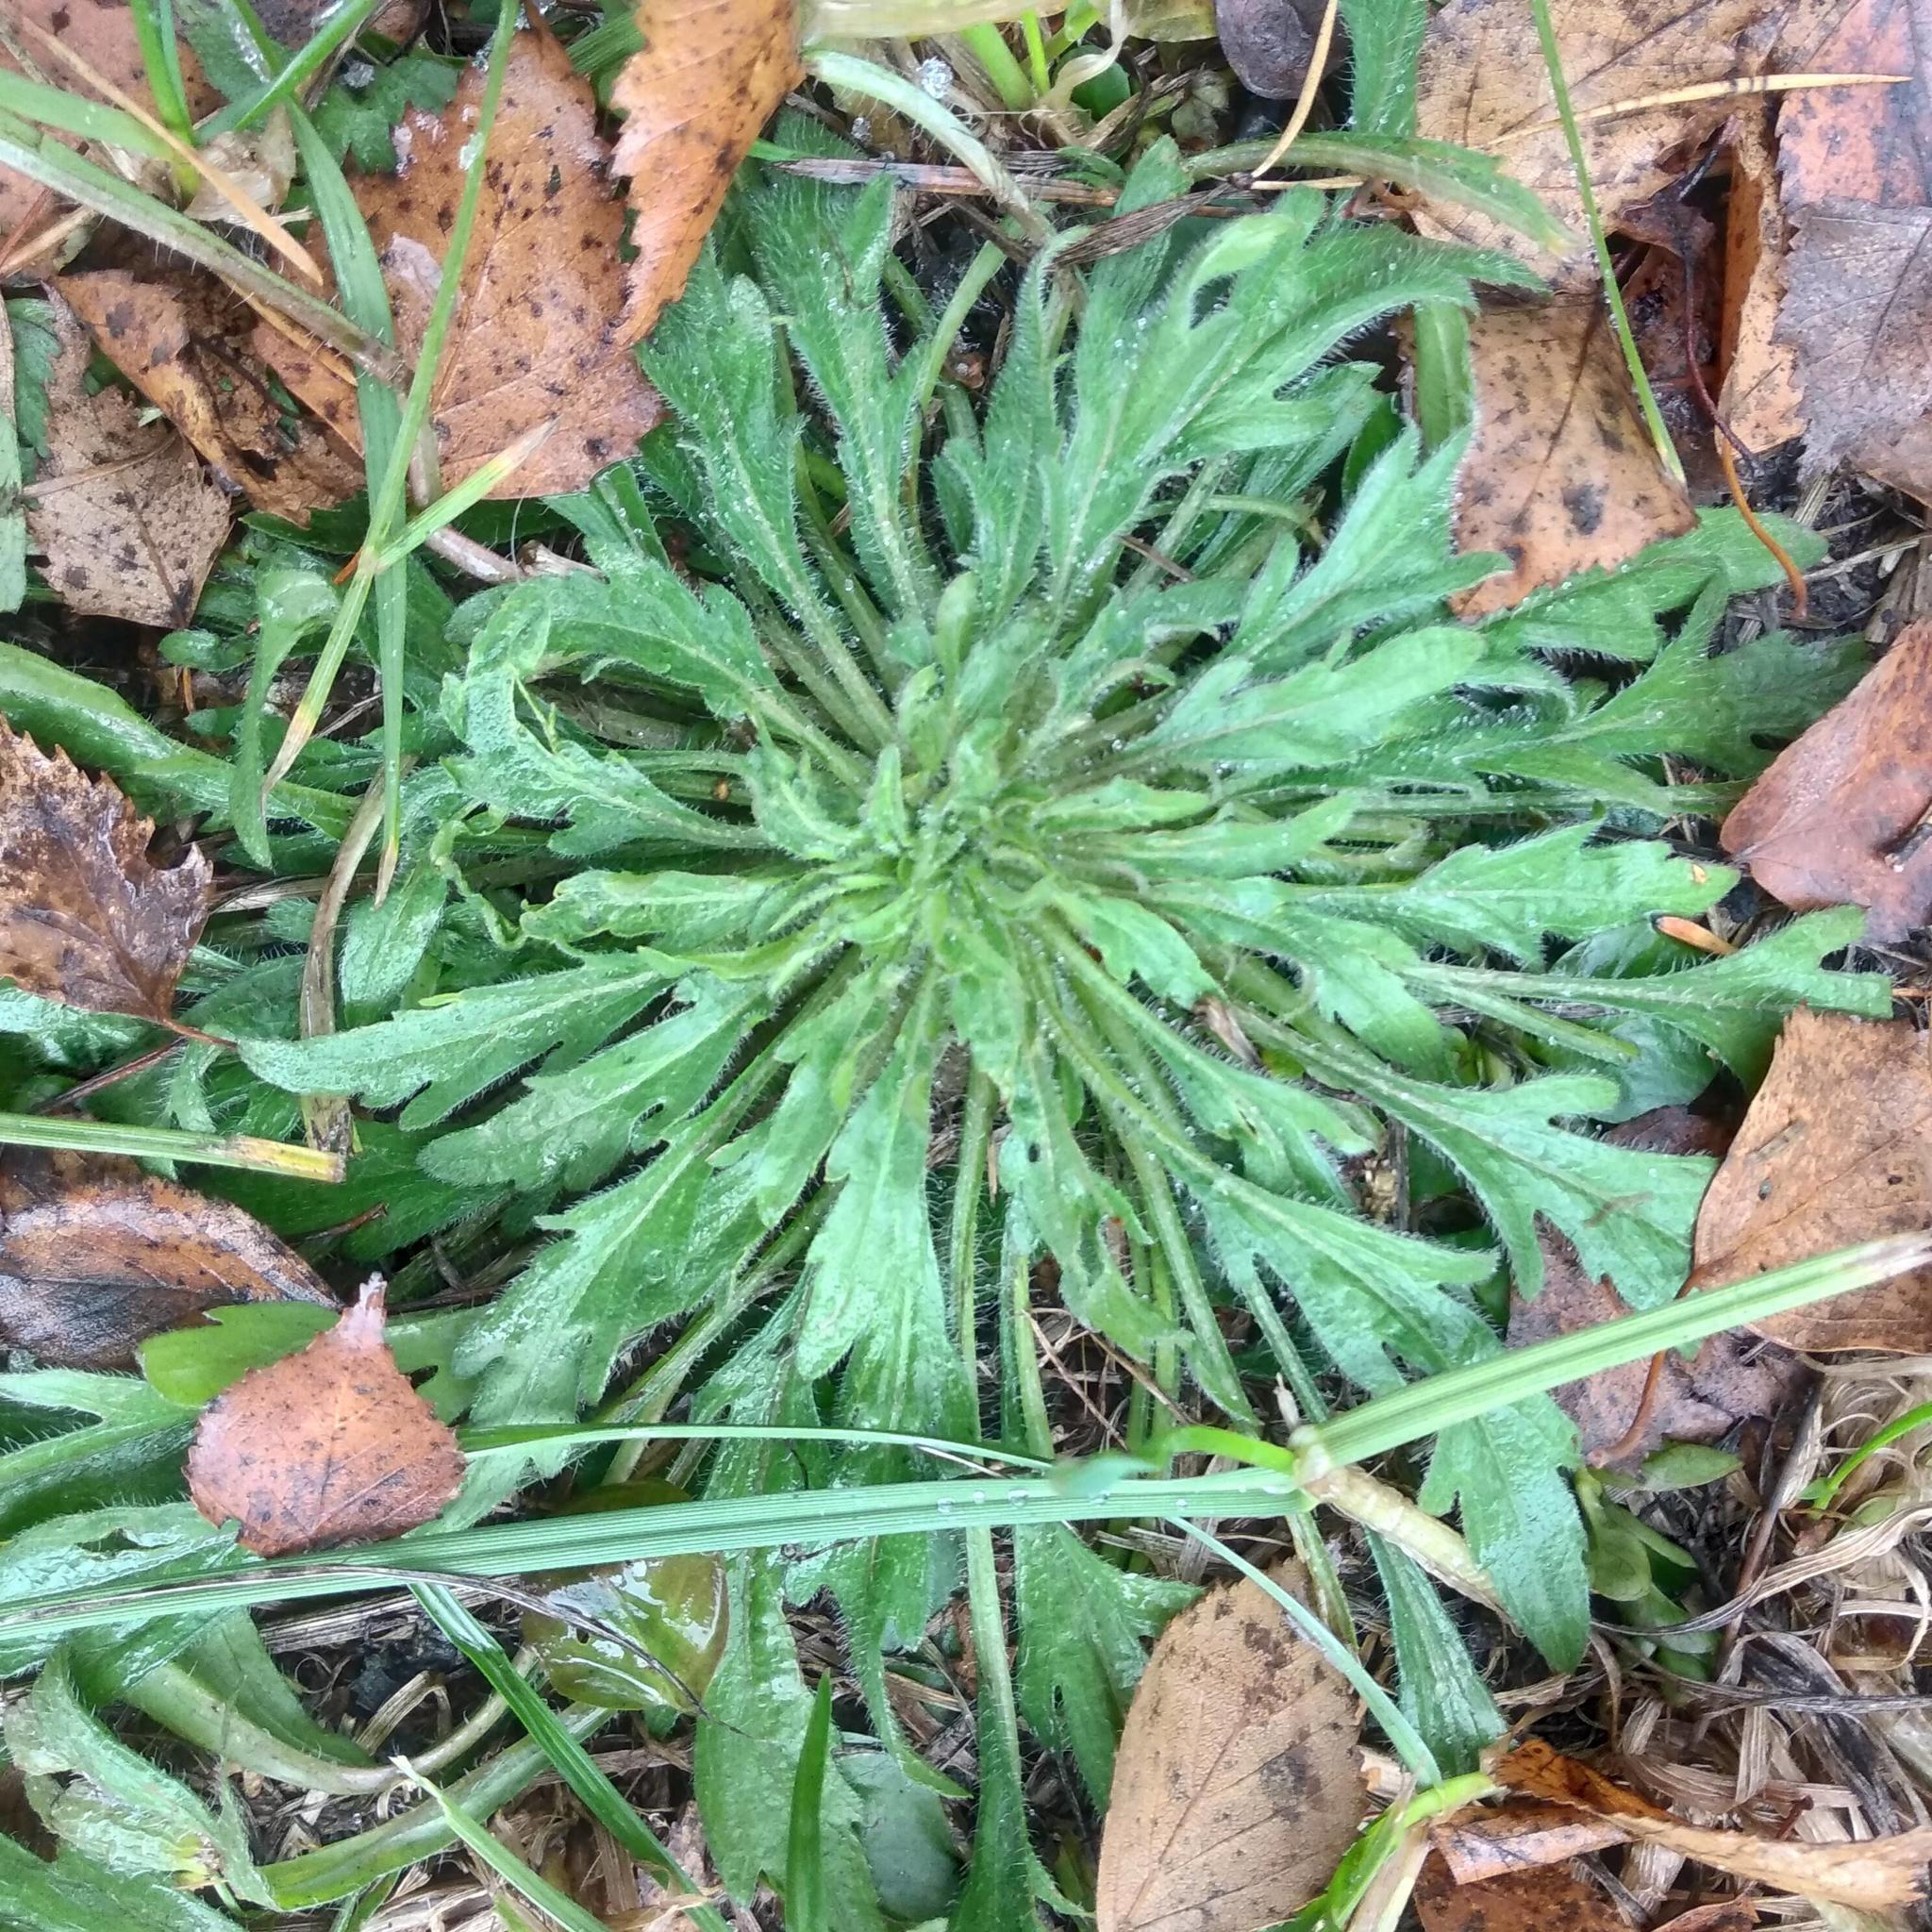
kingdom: Plantae
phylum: Tracheophyta
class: Magnoliopsida
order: Asterales
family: Asteraceae
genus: Erigeron
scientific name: Erigeron canadensis
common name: Canadian fleabane
